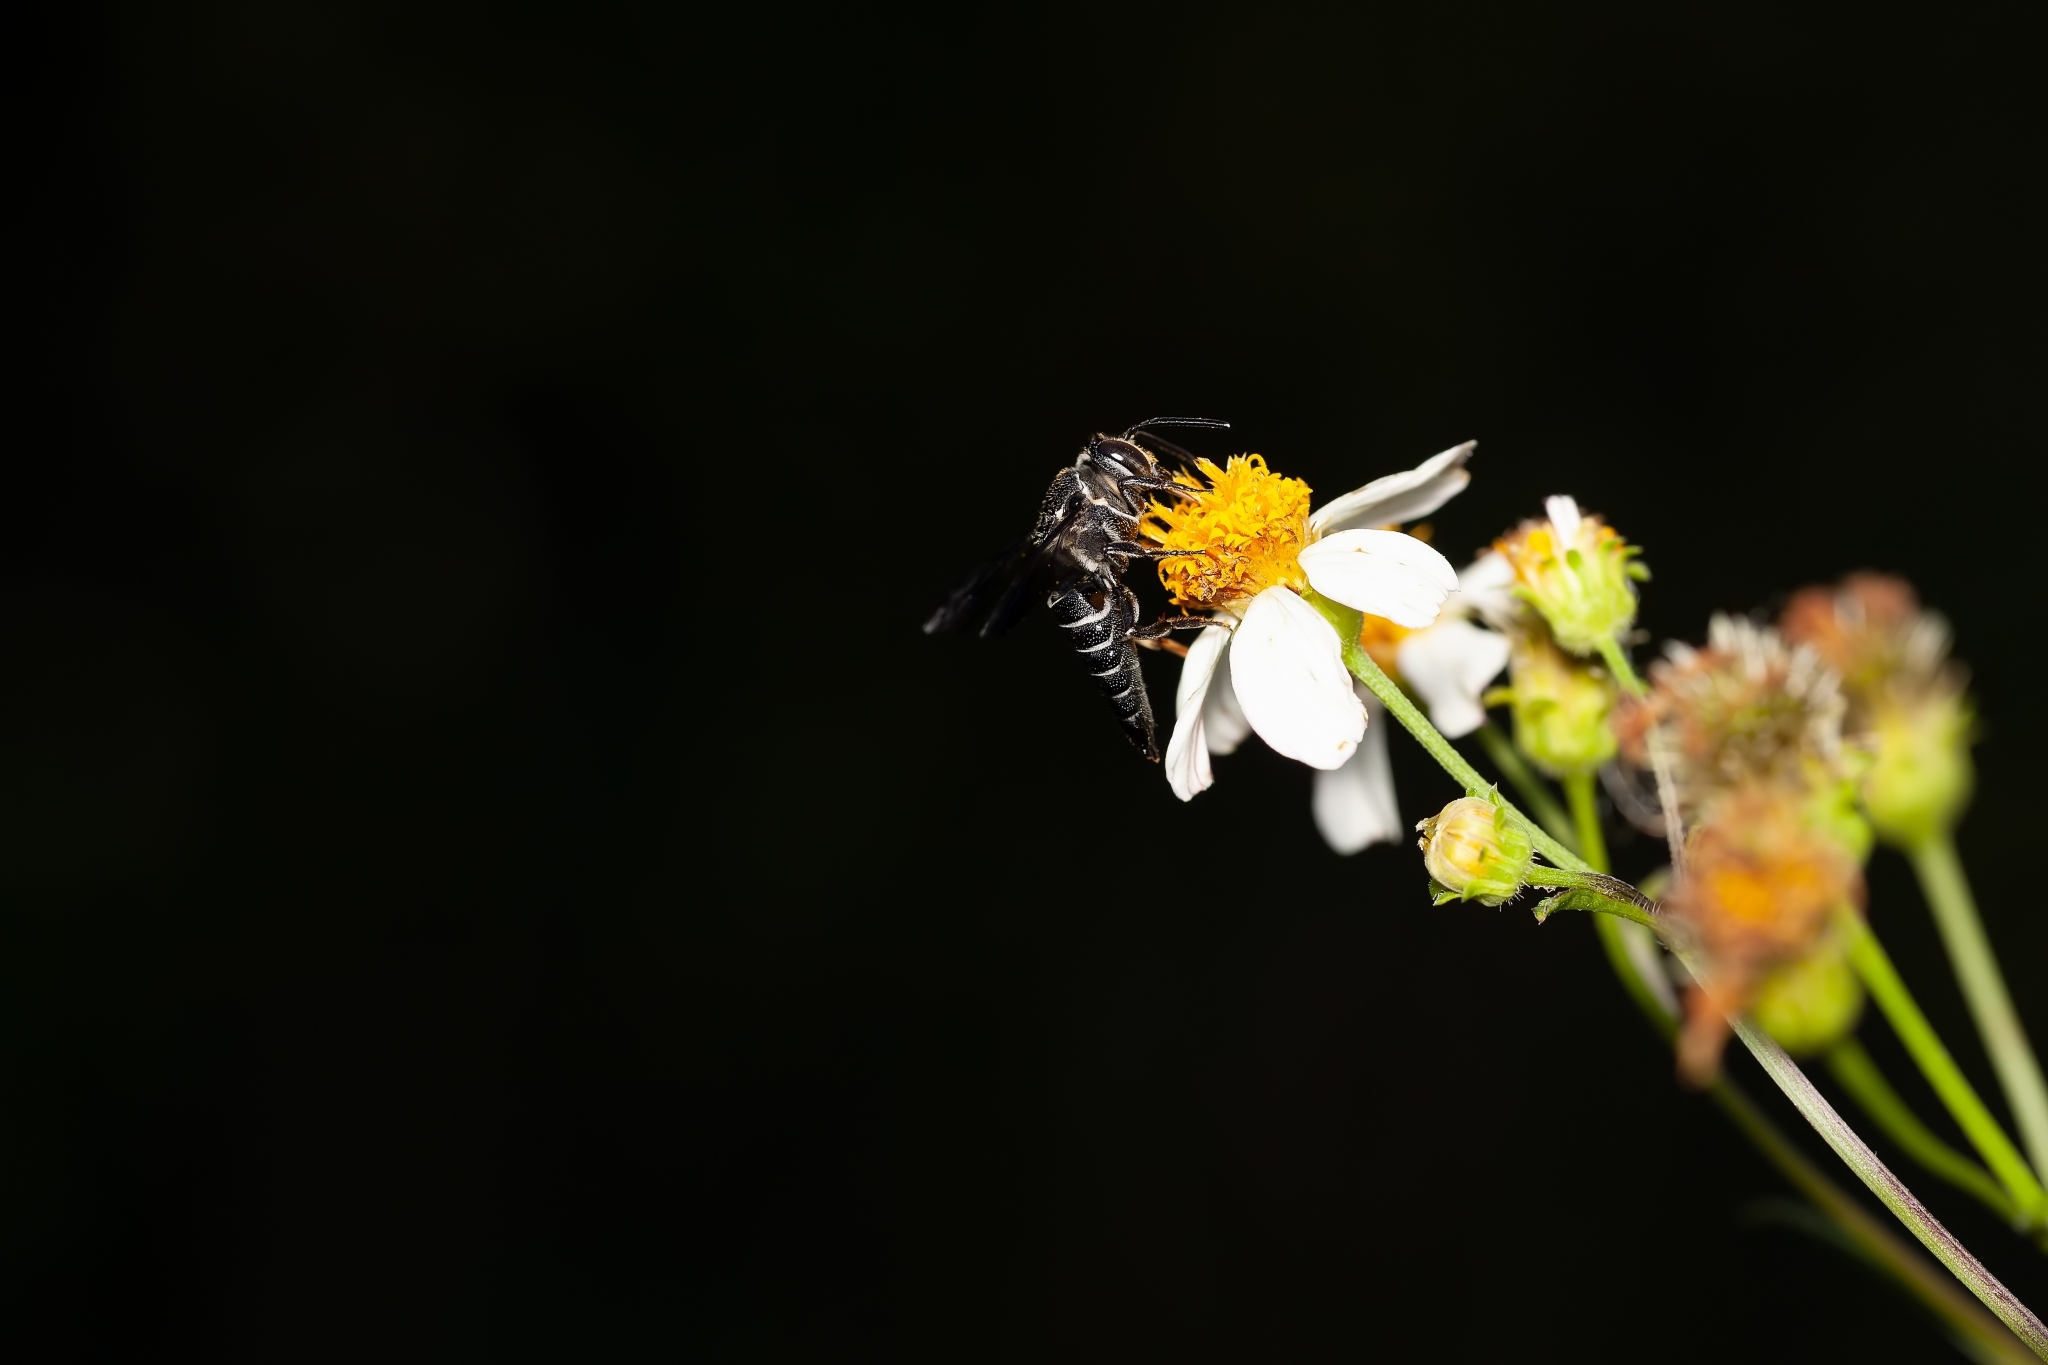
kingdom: Animalia
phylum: Arthropoda
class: Insecta
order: Hymenoptera
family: Megachilidae
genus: Coelioxys
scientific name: Coelioxys dolichos
